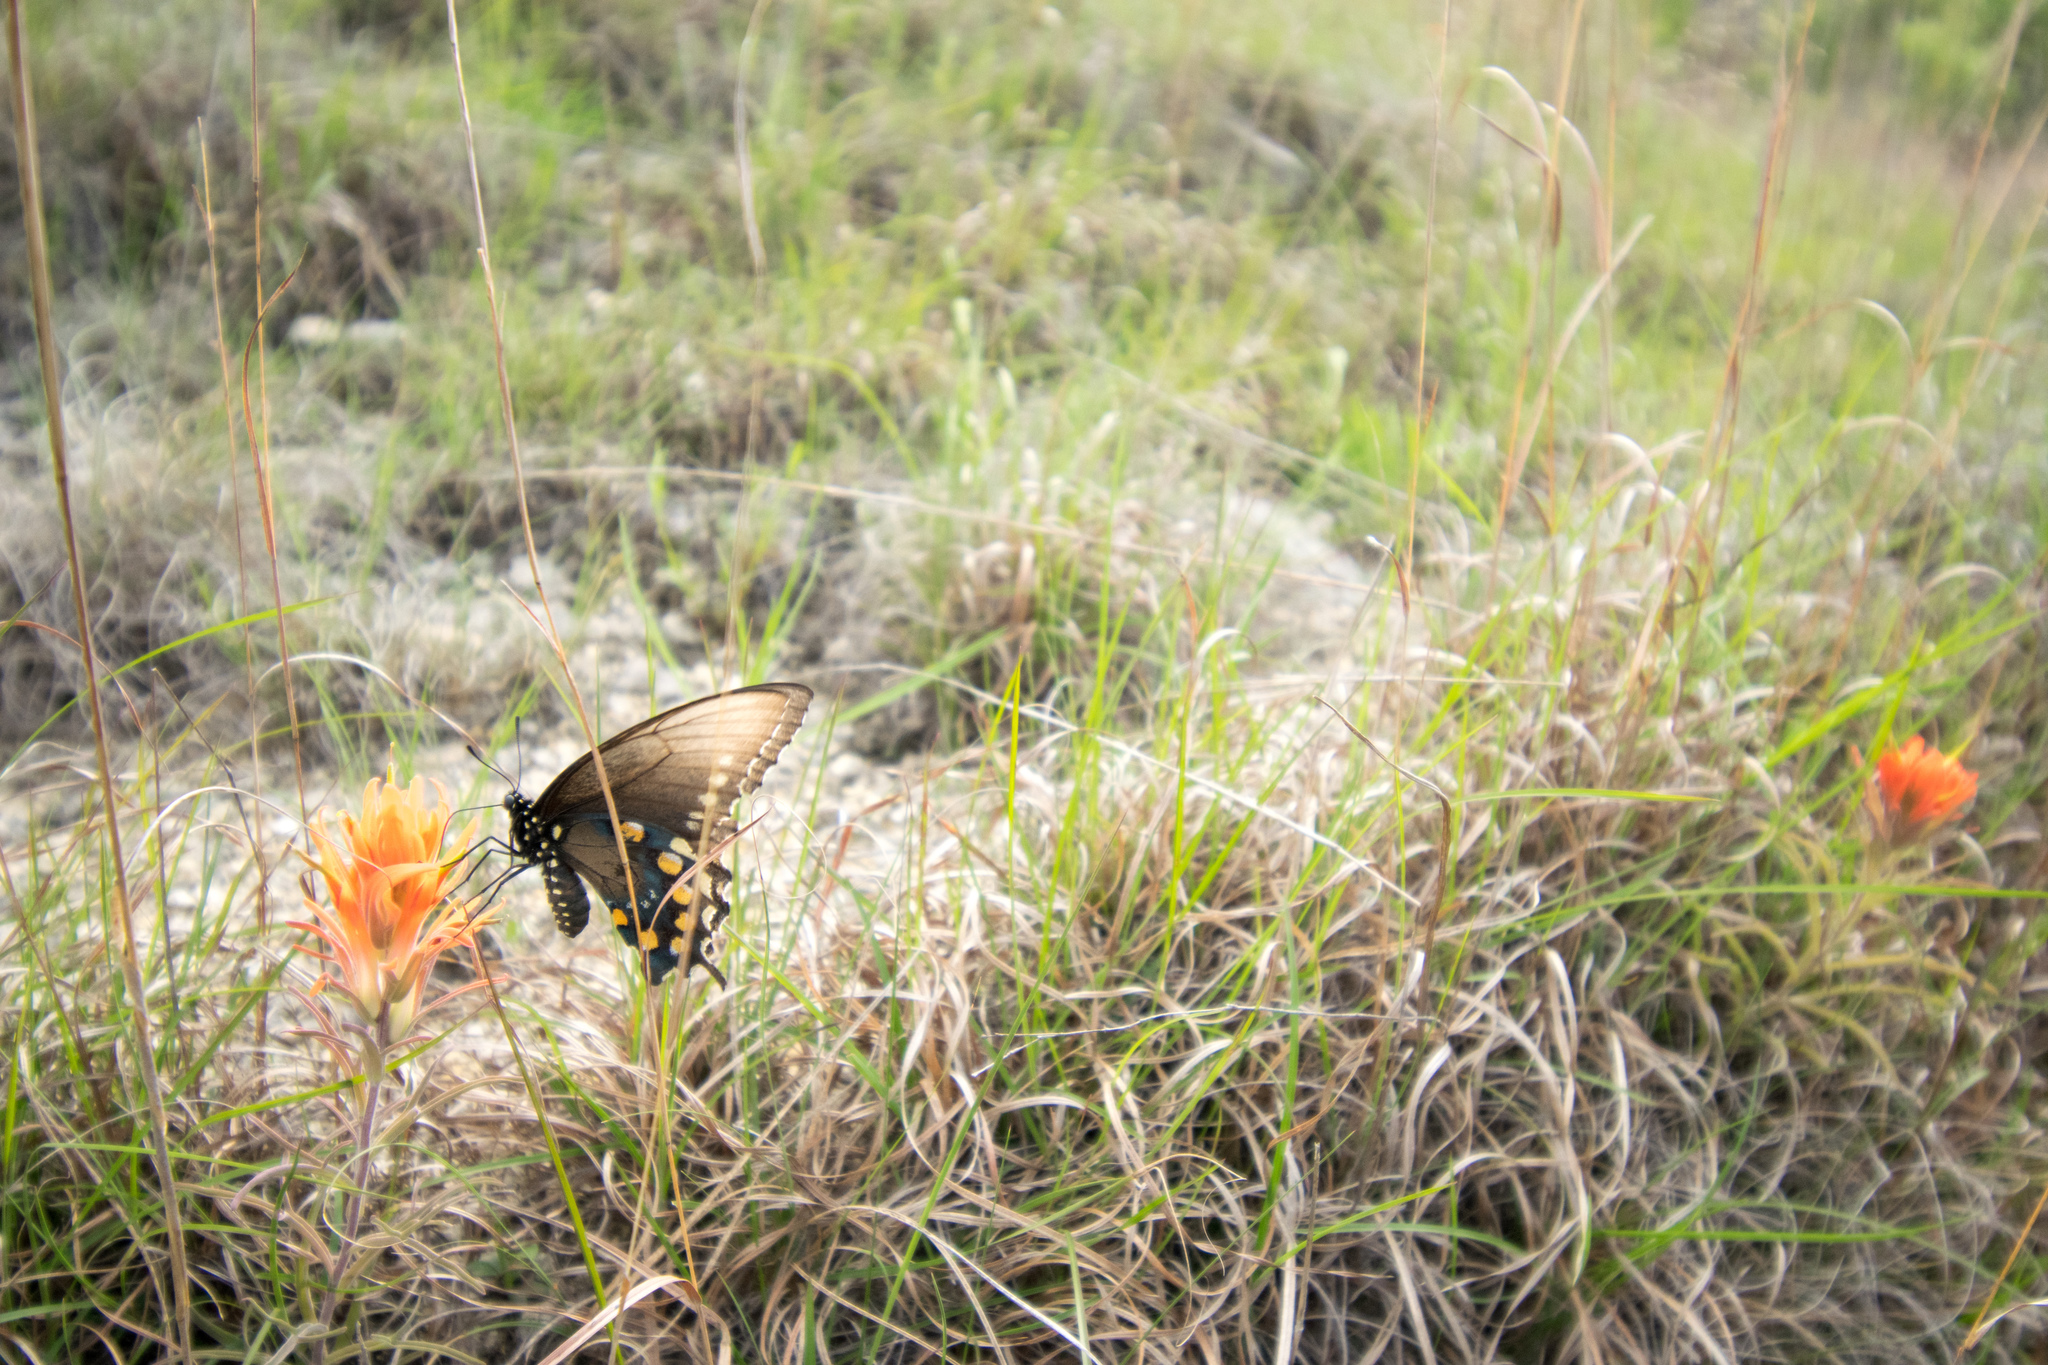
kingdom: Animalia
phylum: Arthropoda
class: Insecta
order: Lepidoptera
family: Papilionidae
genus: Battus
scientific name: Battus philenor
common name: Pipevine swallowtail
